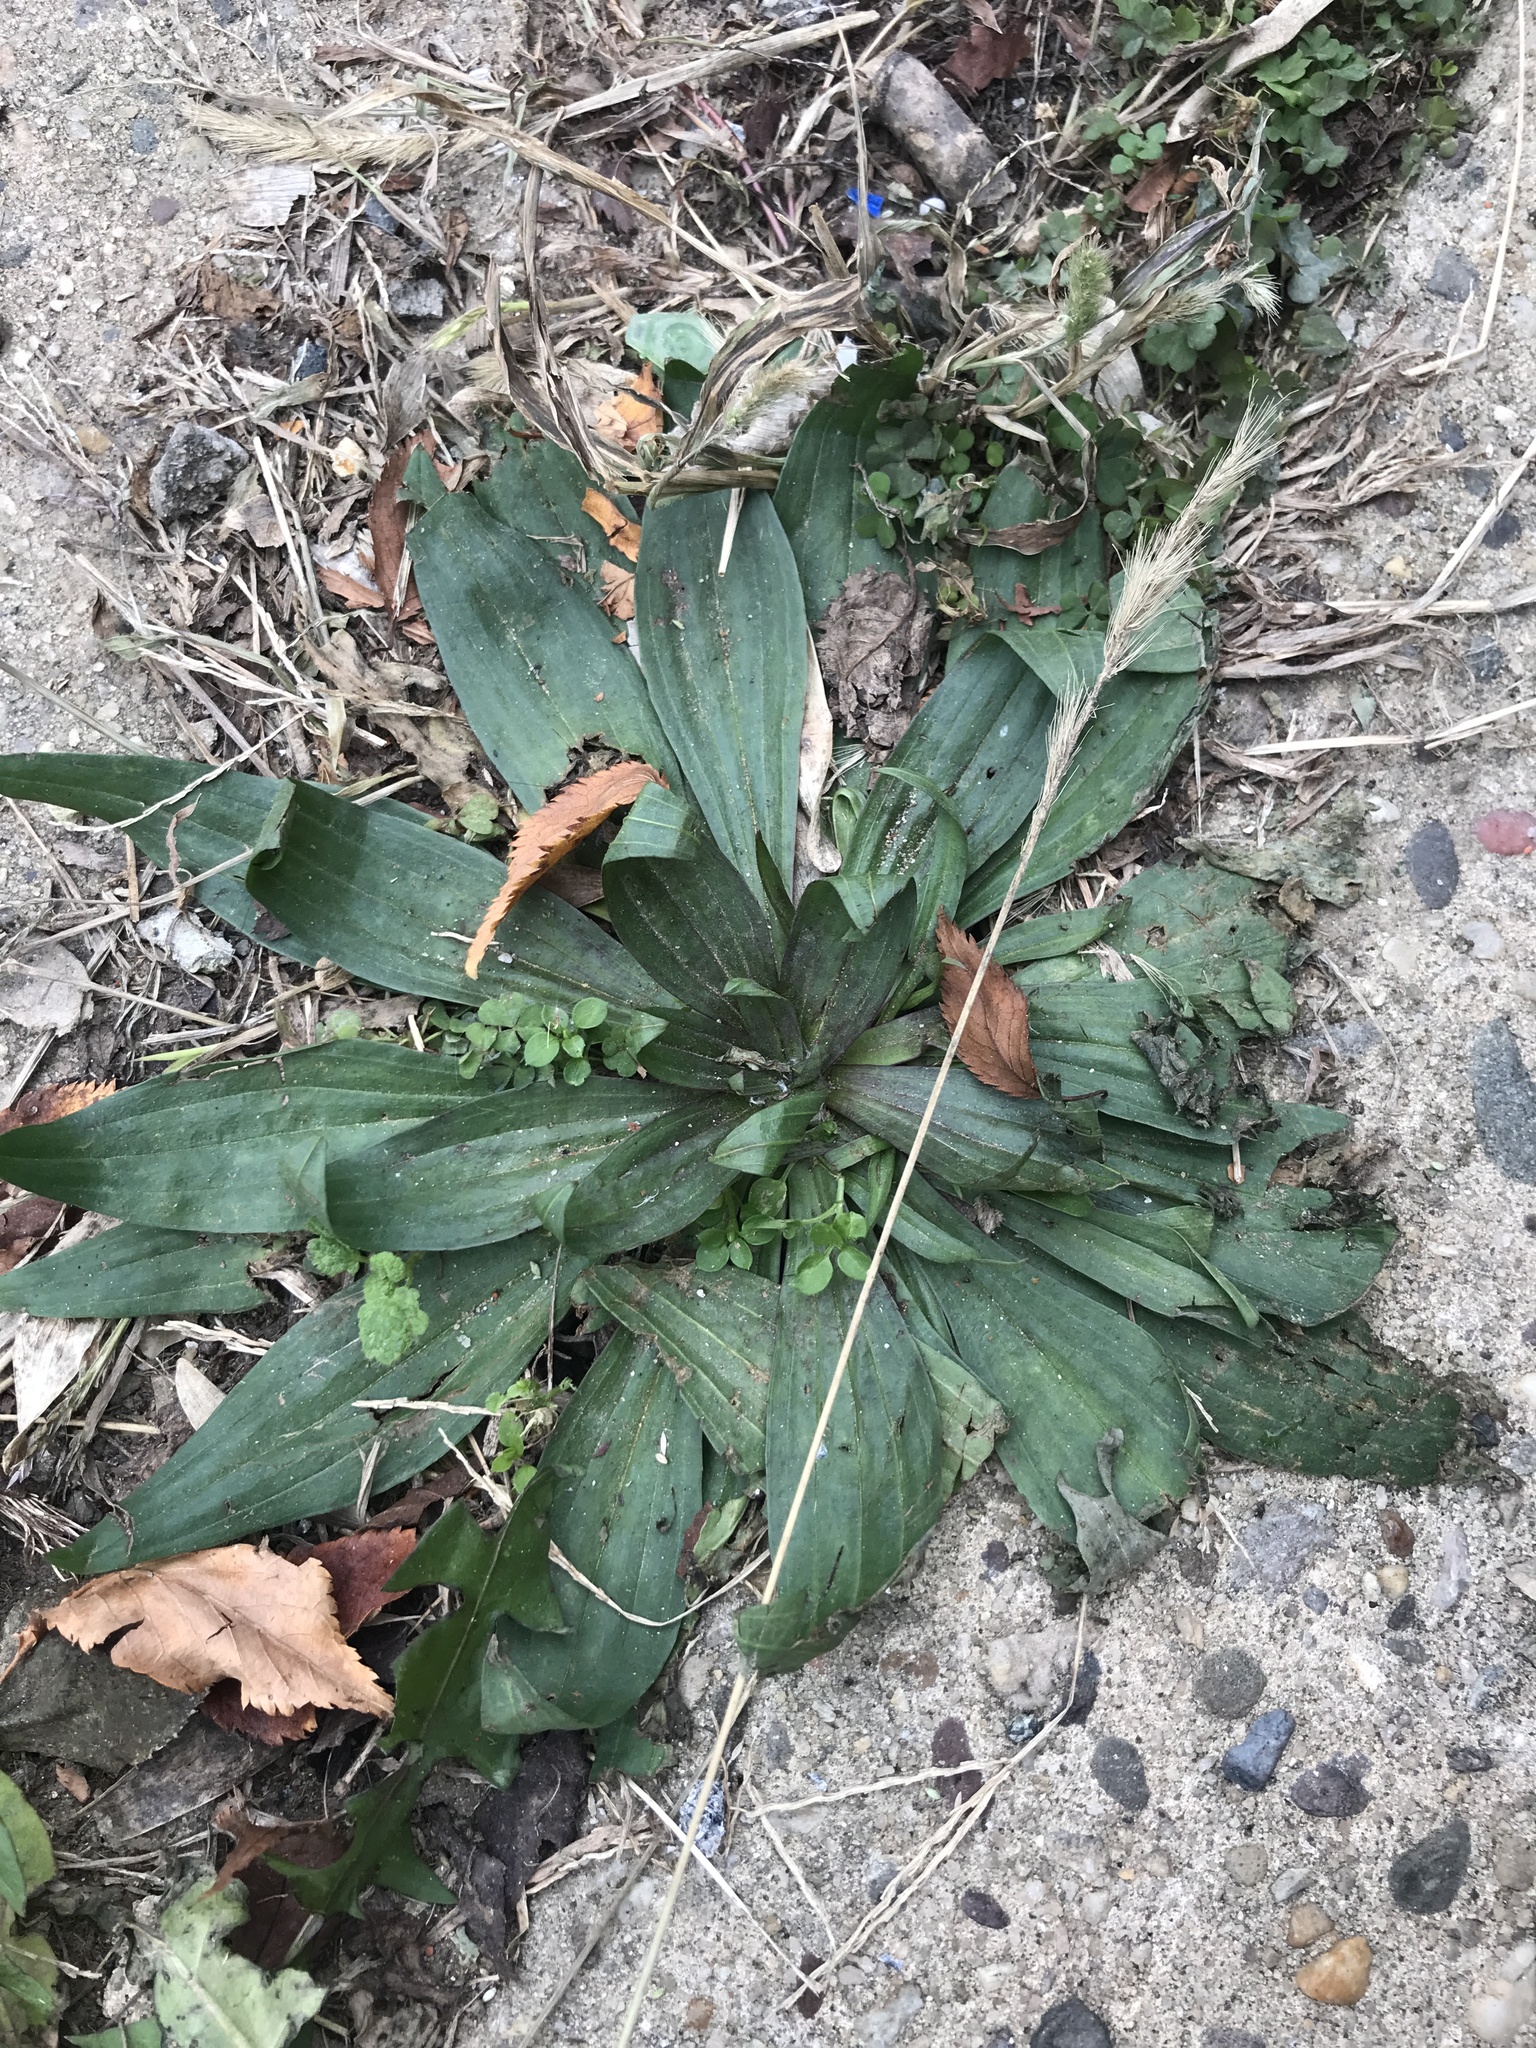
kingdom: Plantae
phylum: Tracheophyta
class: Magnoliopsida
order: Lamiales
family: Plantaginaceae
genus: Plantago
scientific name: Plantago lanceolata
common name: Ribwort plantain
